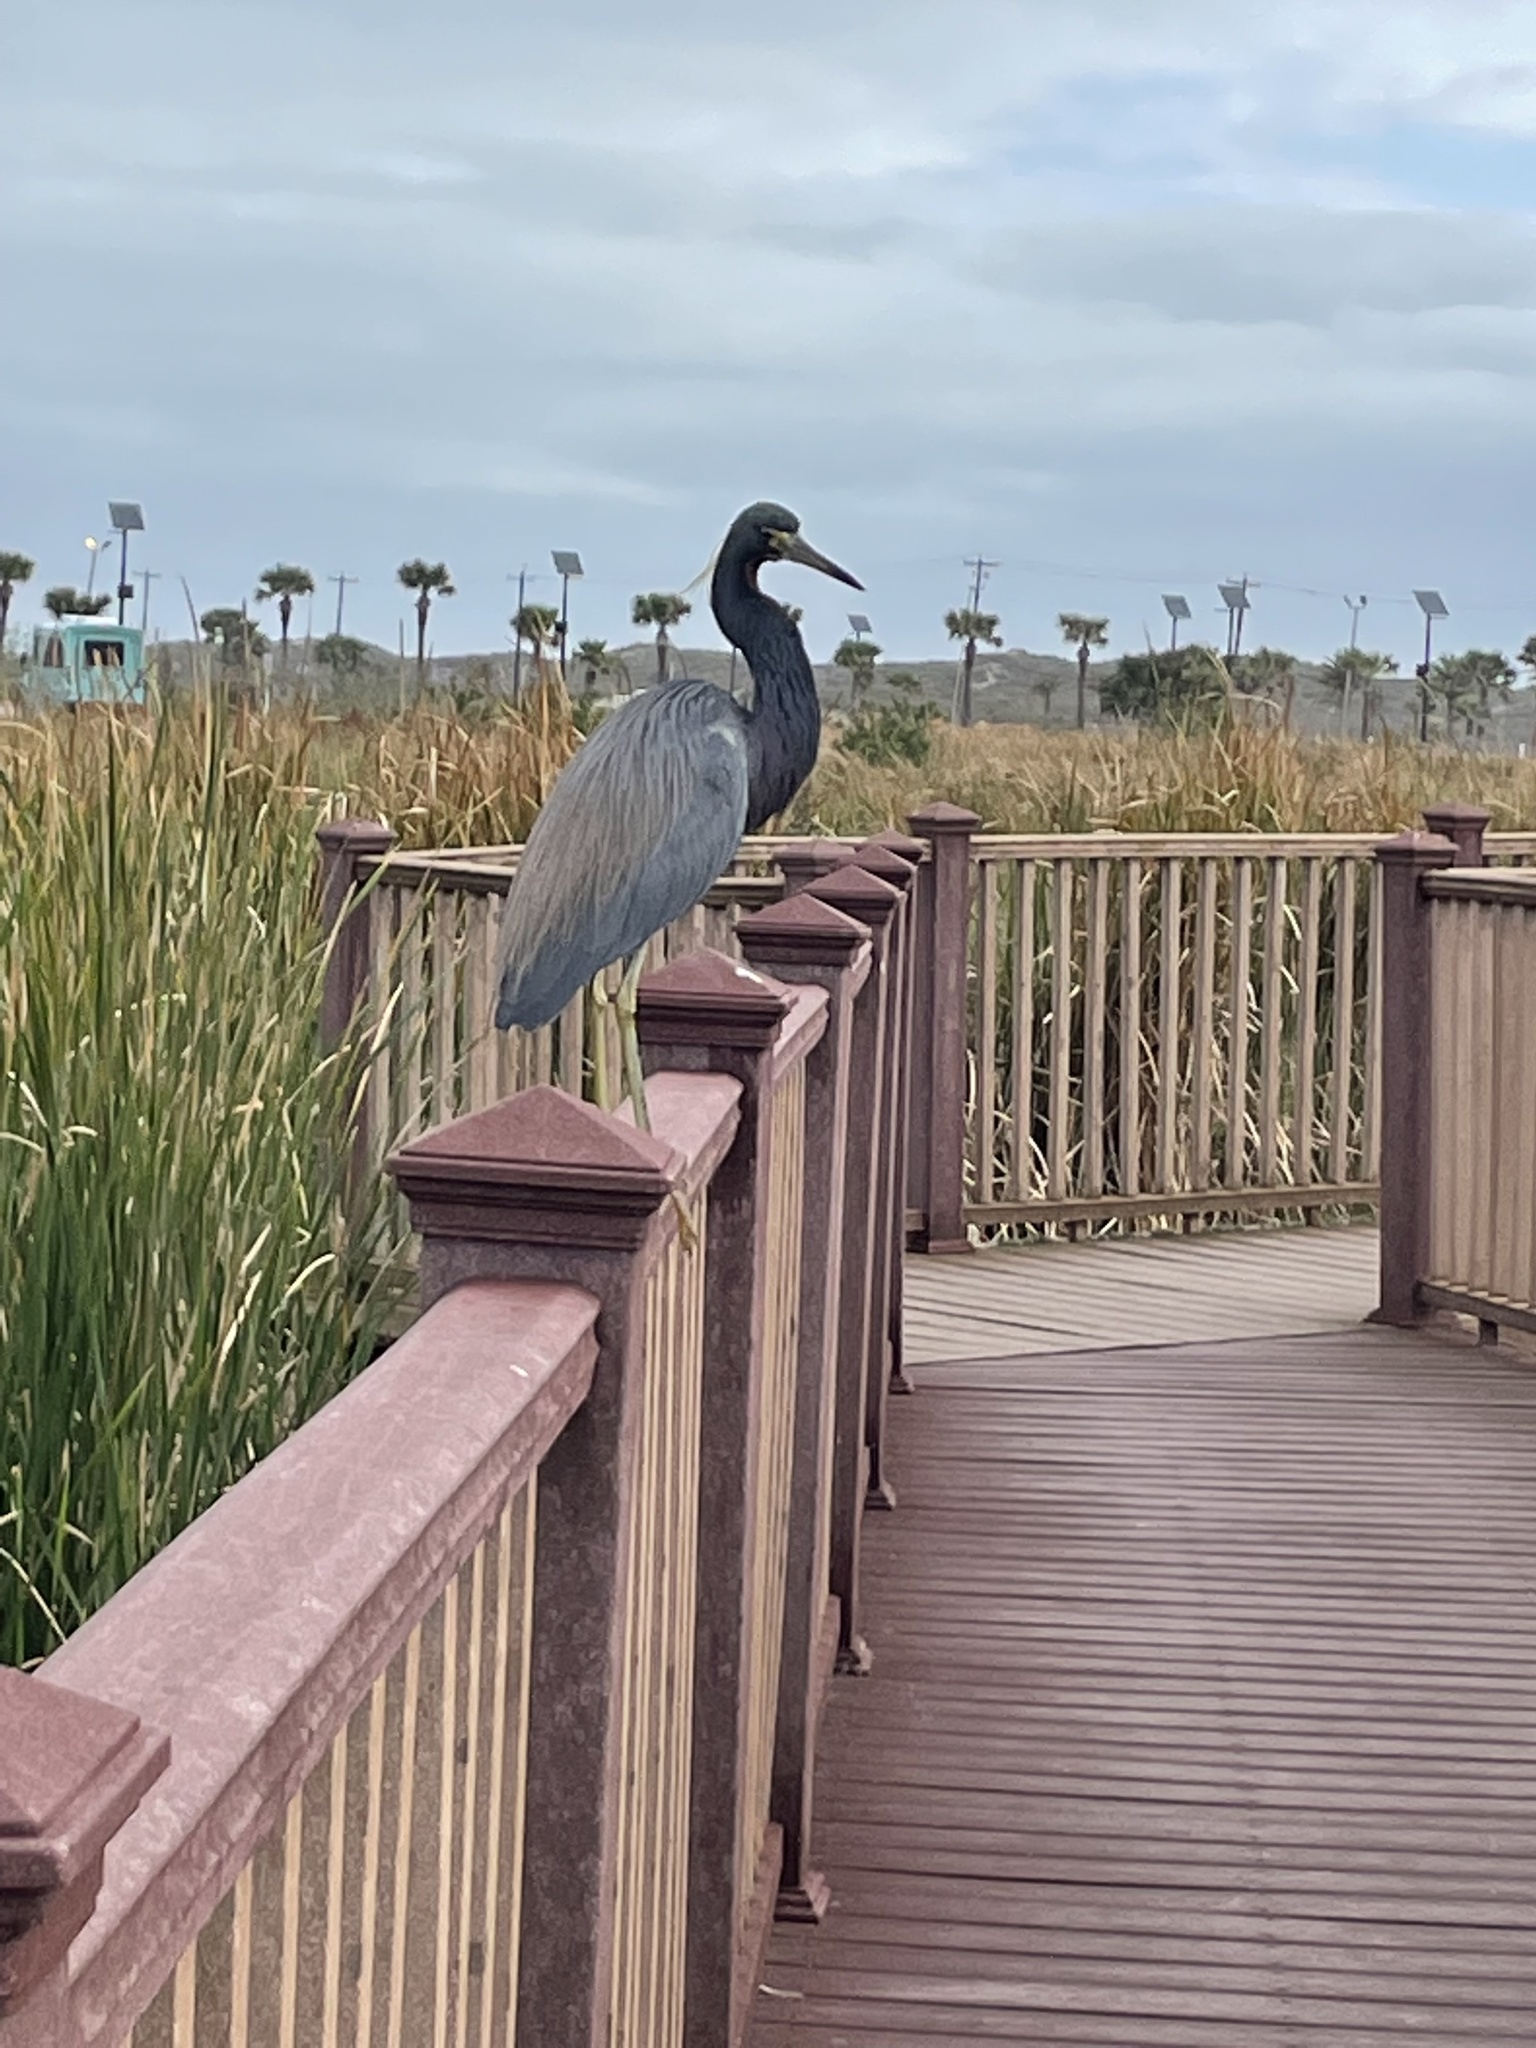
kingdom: Animalia
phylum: Chordata
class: Aves
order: Pelecaniformes
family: Ardeidae
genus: Egretta
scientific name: Egretta tricolor
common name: Tricolored heron
